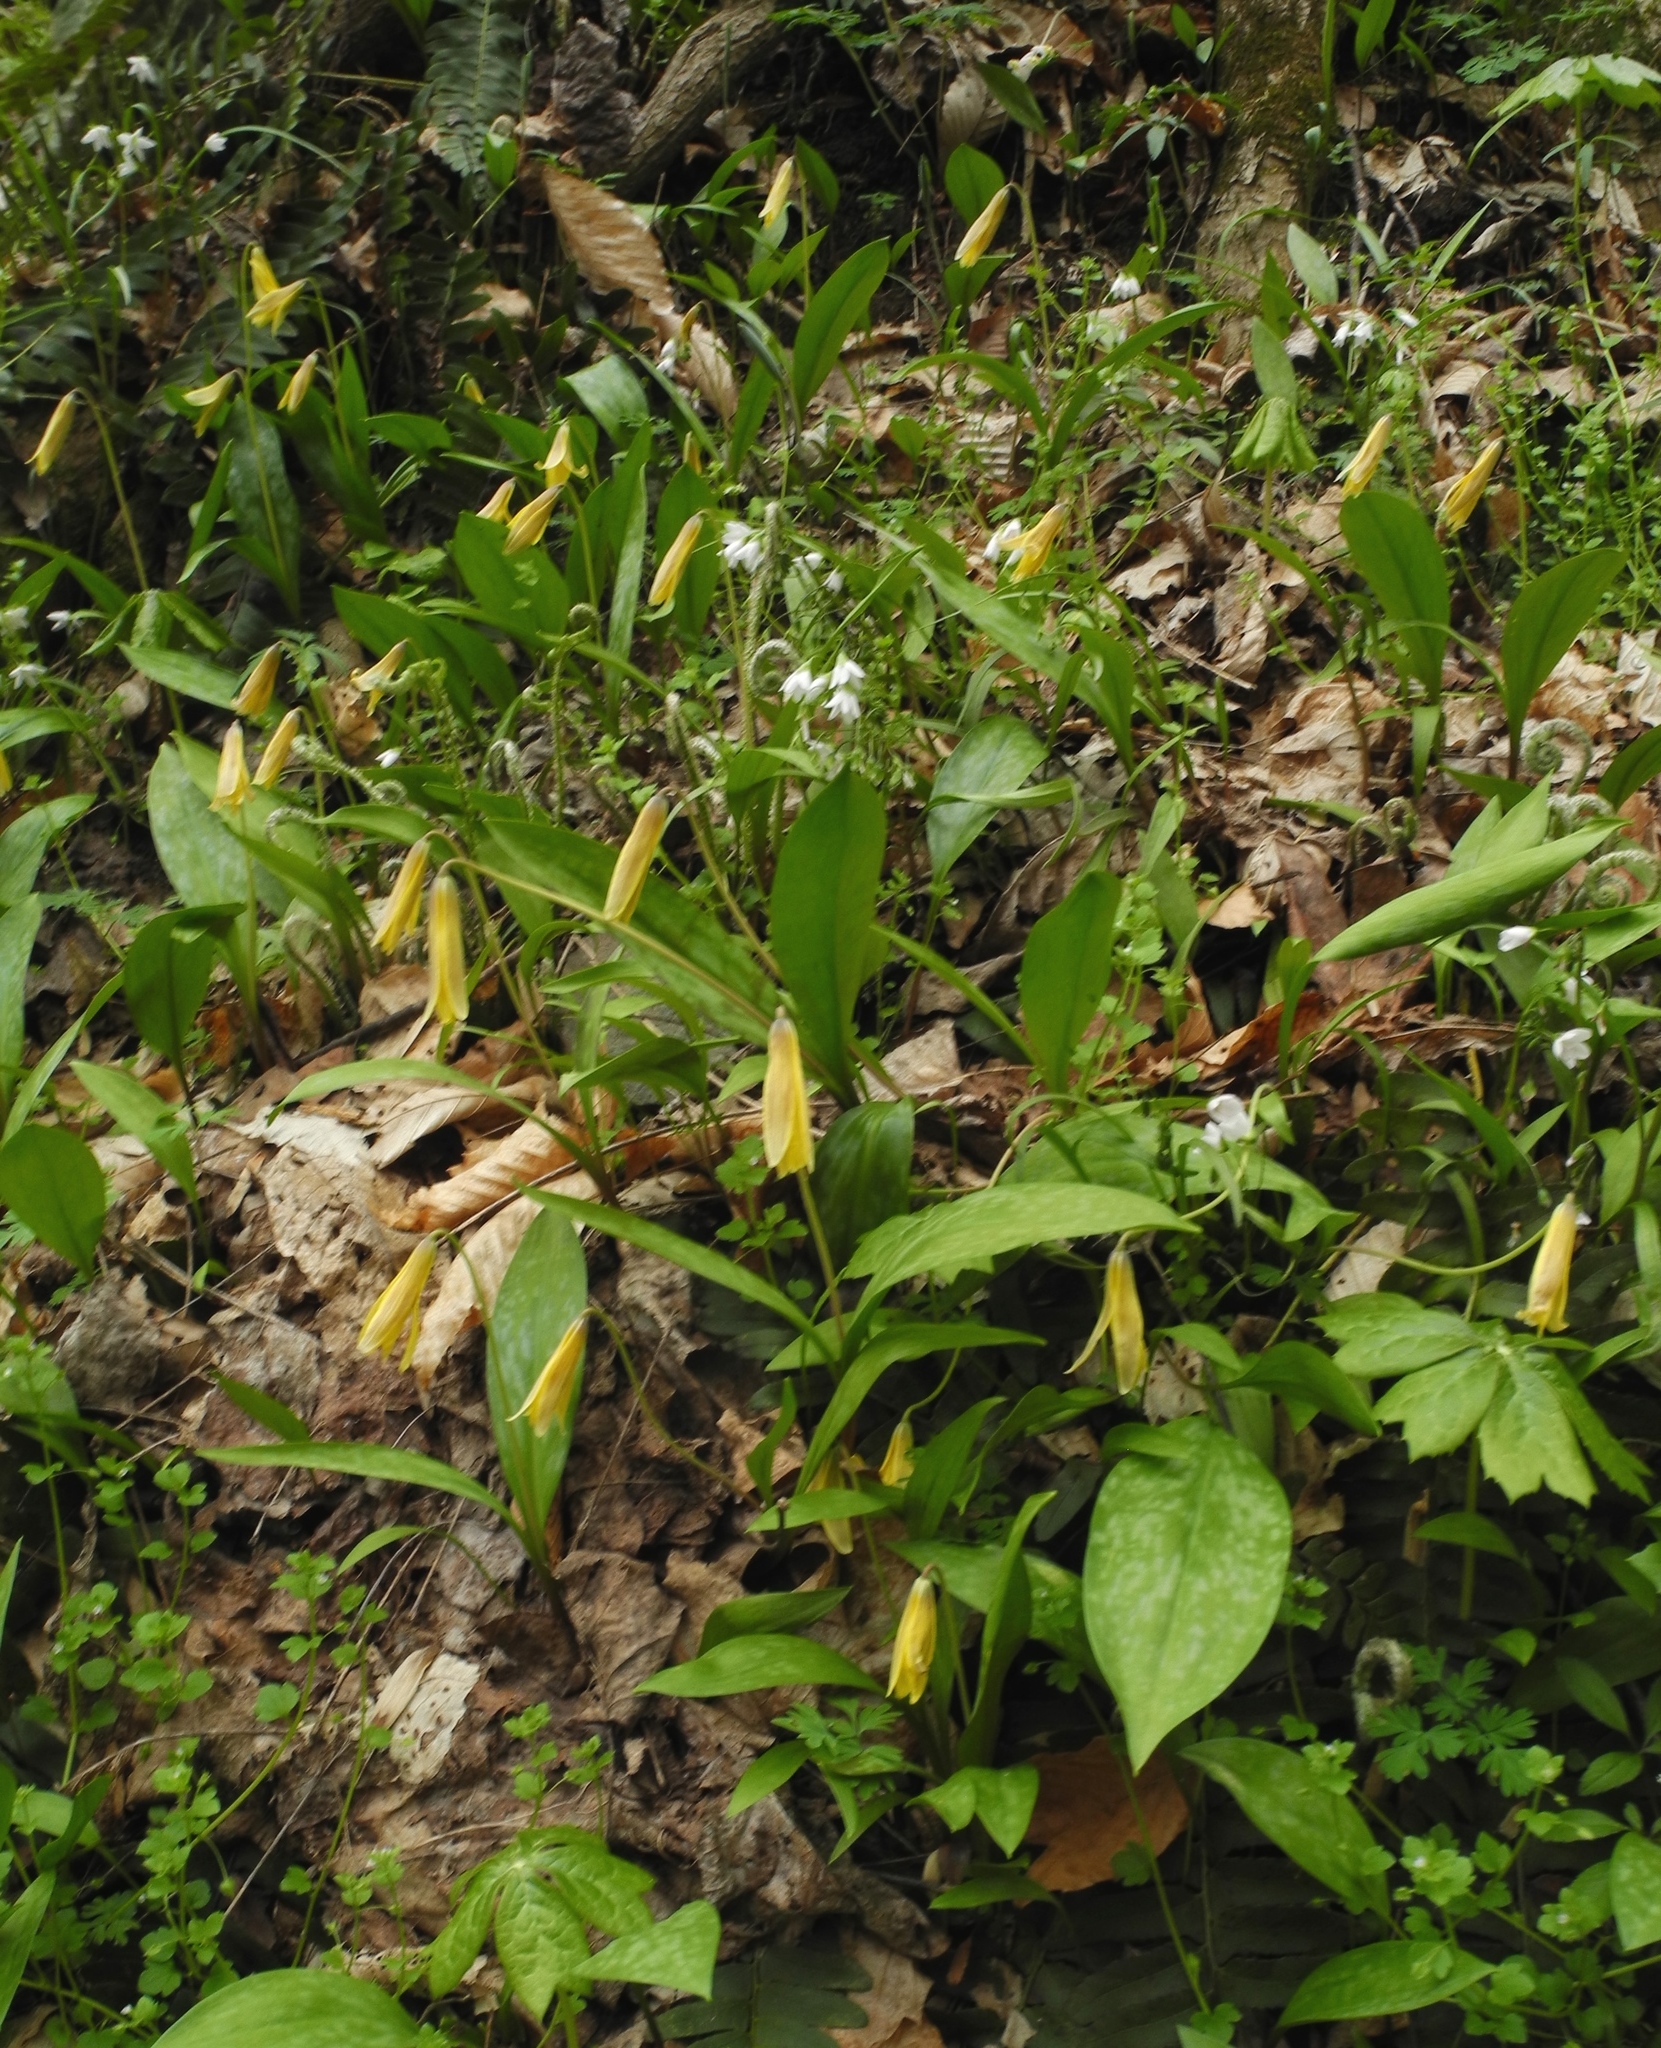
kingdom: Plantae
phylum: Tracheophyta
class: Liliopsida
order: Liliales
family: Liliaceae
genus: Erythronium
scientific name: Erythronium americanum
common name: Yellow adder's-tongue
